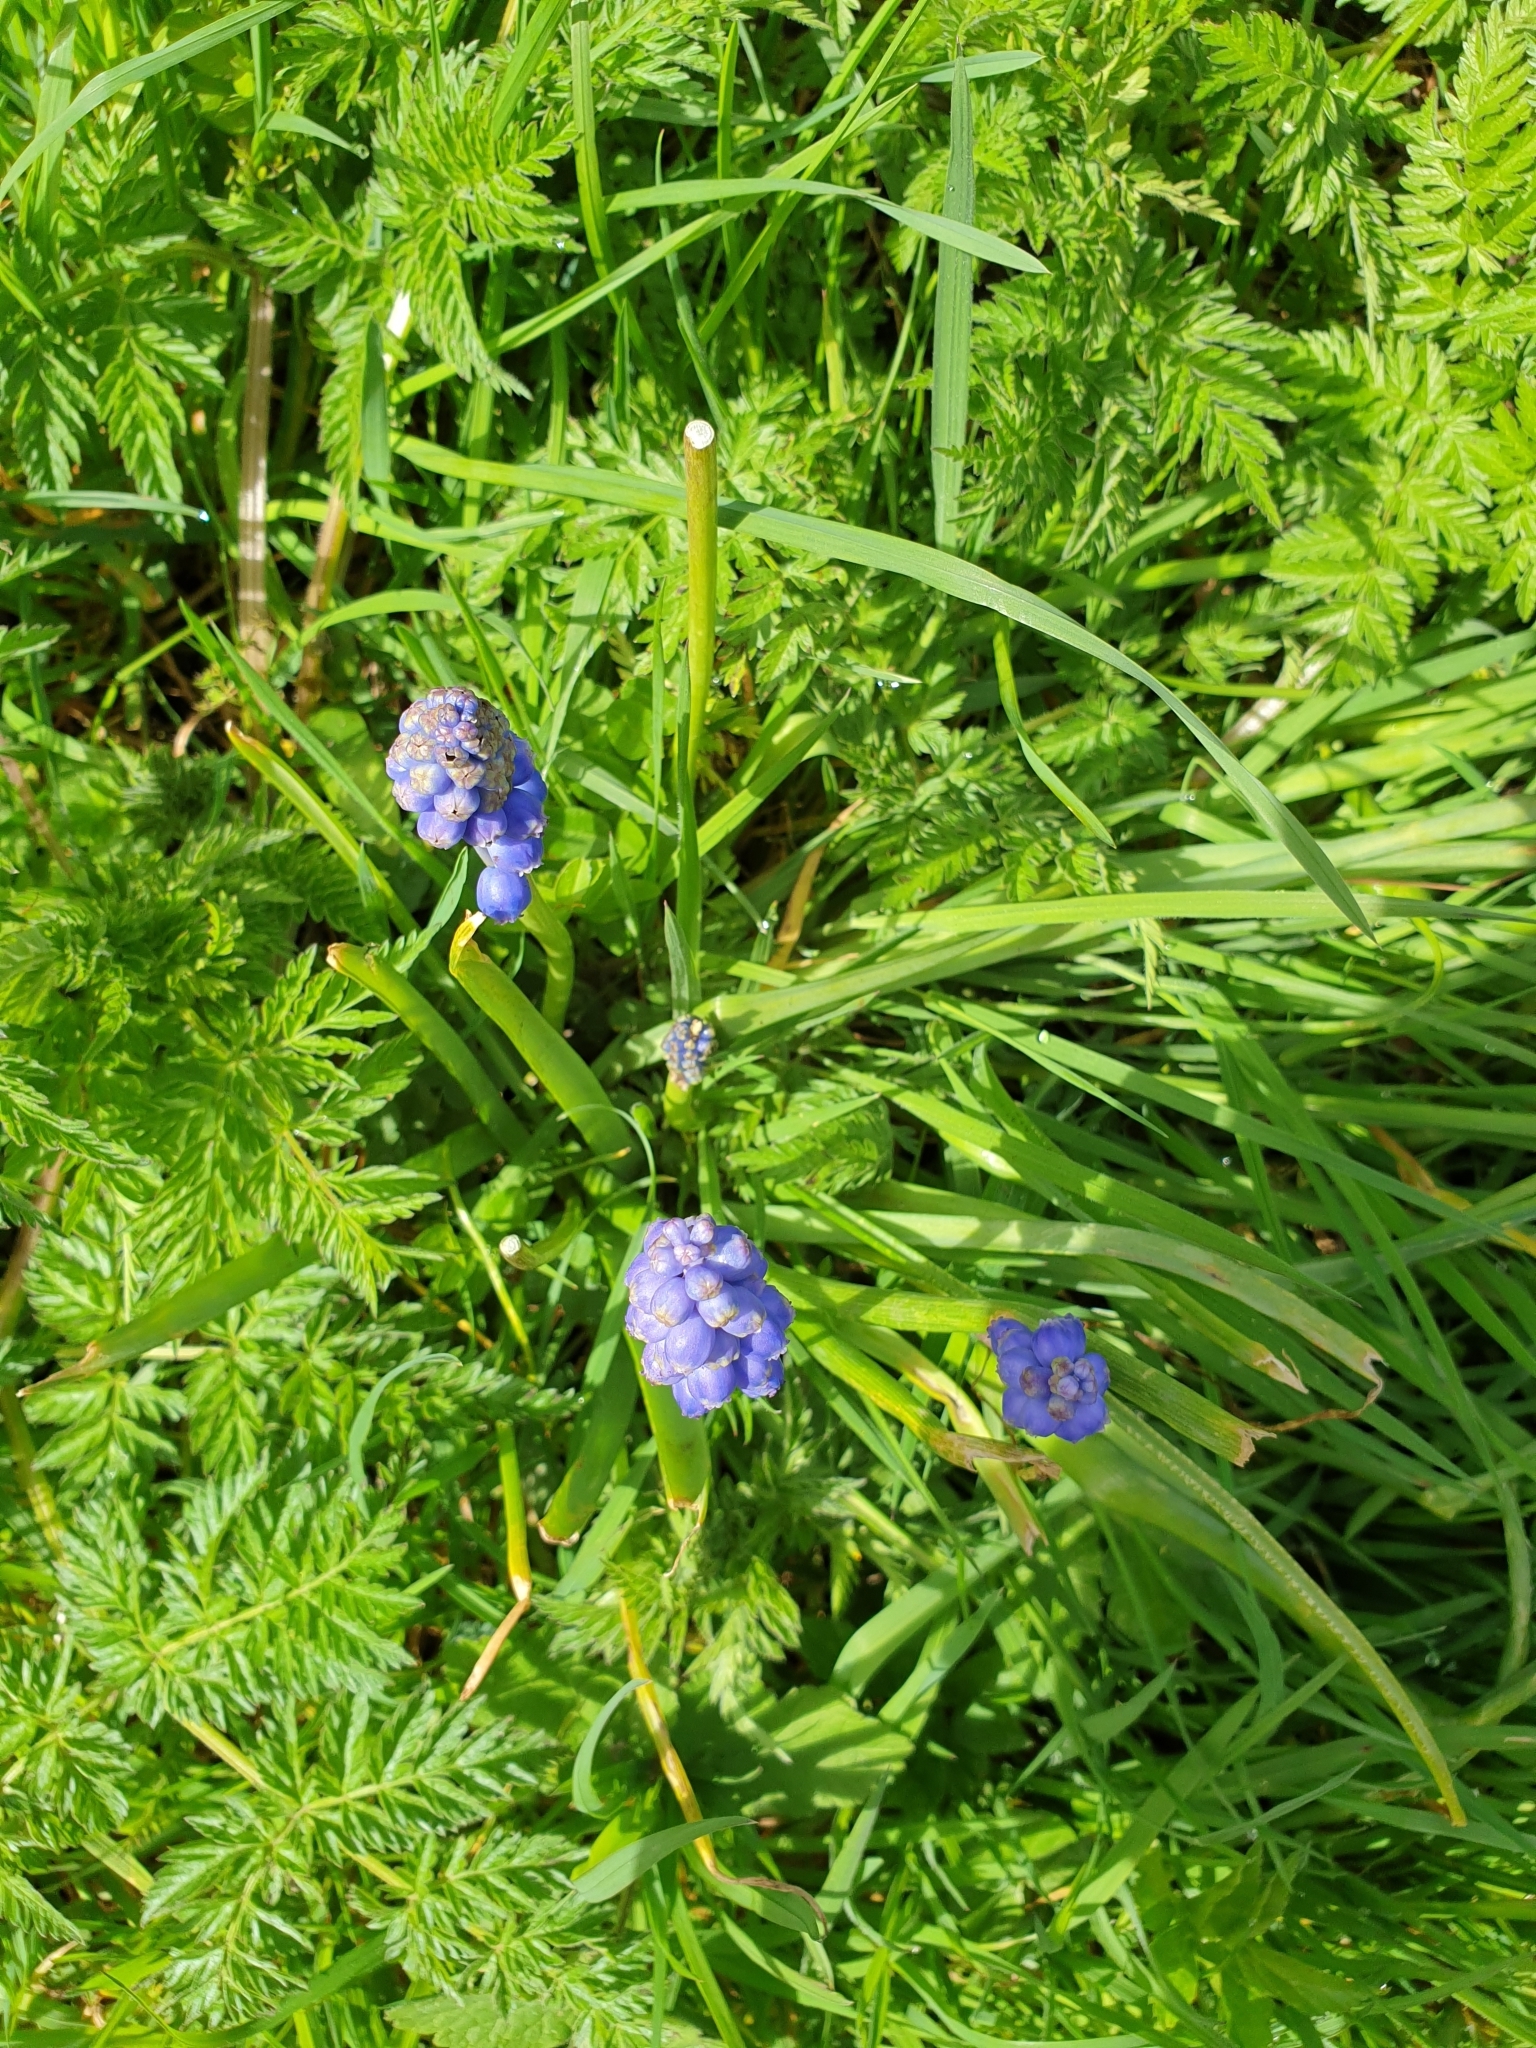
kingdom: Plantae
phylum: Tracheophyta
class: Liliopsida
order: Asparagales
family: Asparagaceae
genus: Muscari
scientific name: Muscari armeniacum
